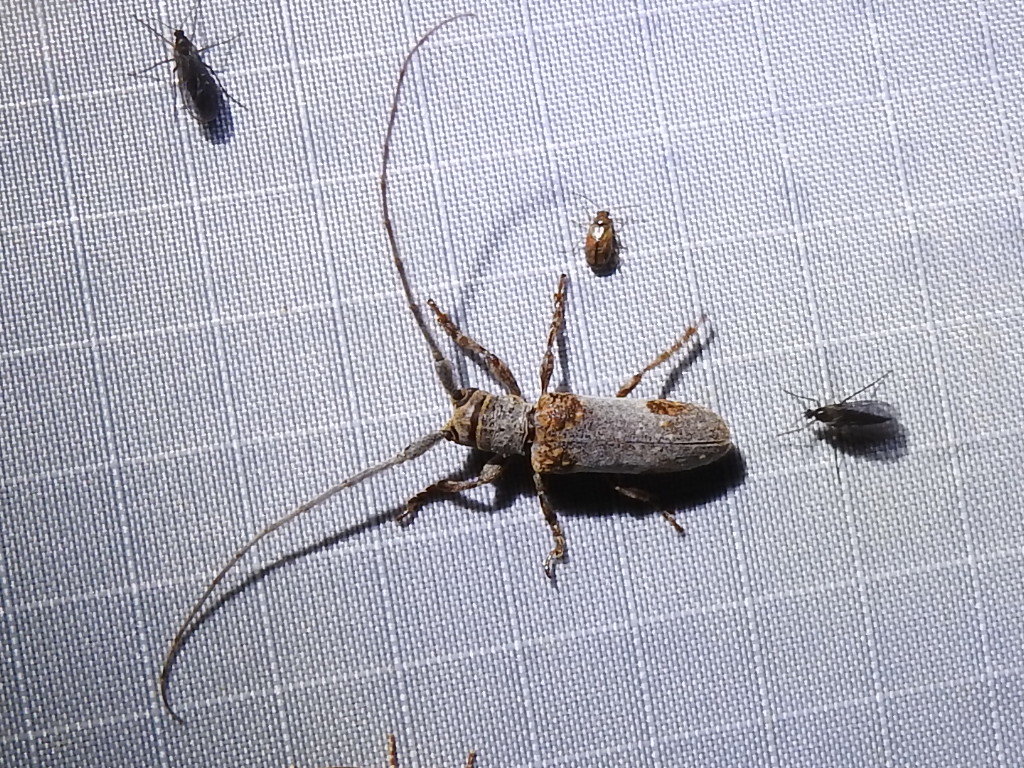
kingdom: Animalia
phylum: Arthropoda
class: Insecta
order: Coleoptera
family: Cerambycidae
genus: Oncideres
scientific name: Oncideres quercus
